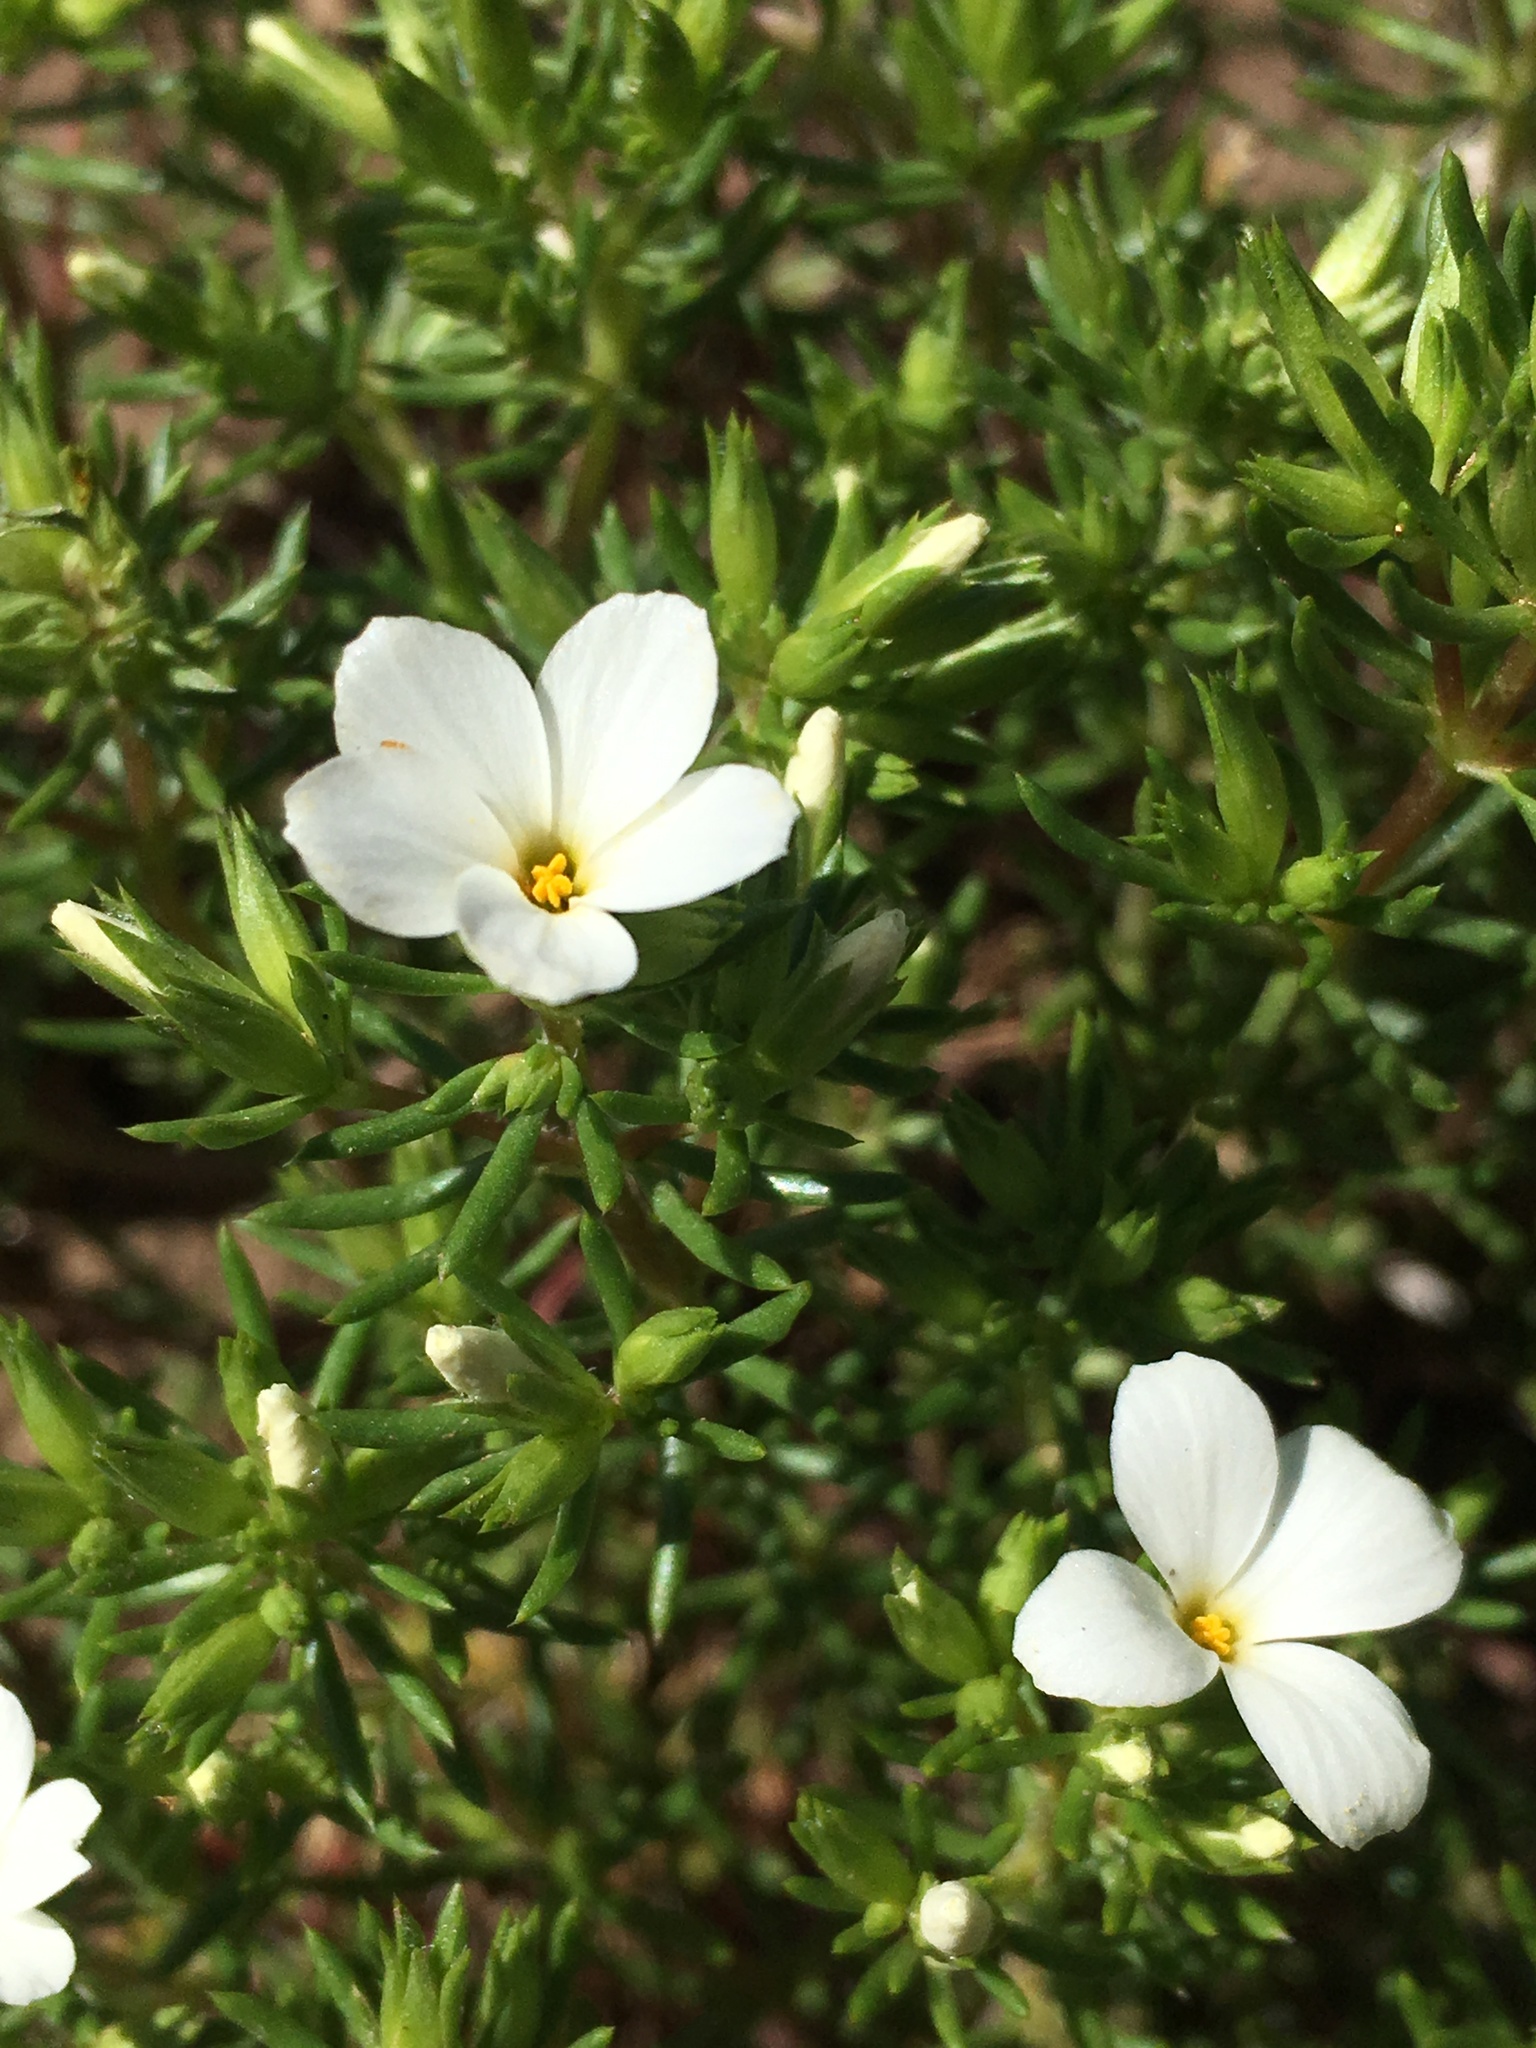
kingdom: Plantae
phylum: Tracheophyta
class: Magnoliopsida
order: Ericales
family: Polemoniaceae
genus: Leptosiphon
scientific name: Leptosiphon floribundum
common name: Many-flower linanthus
